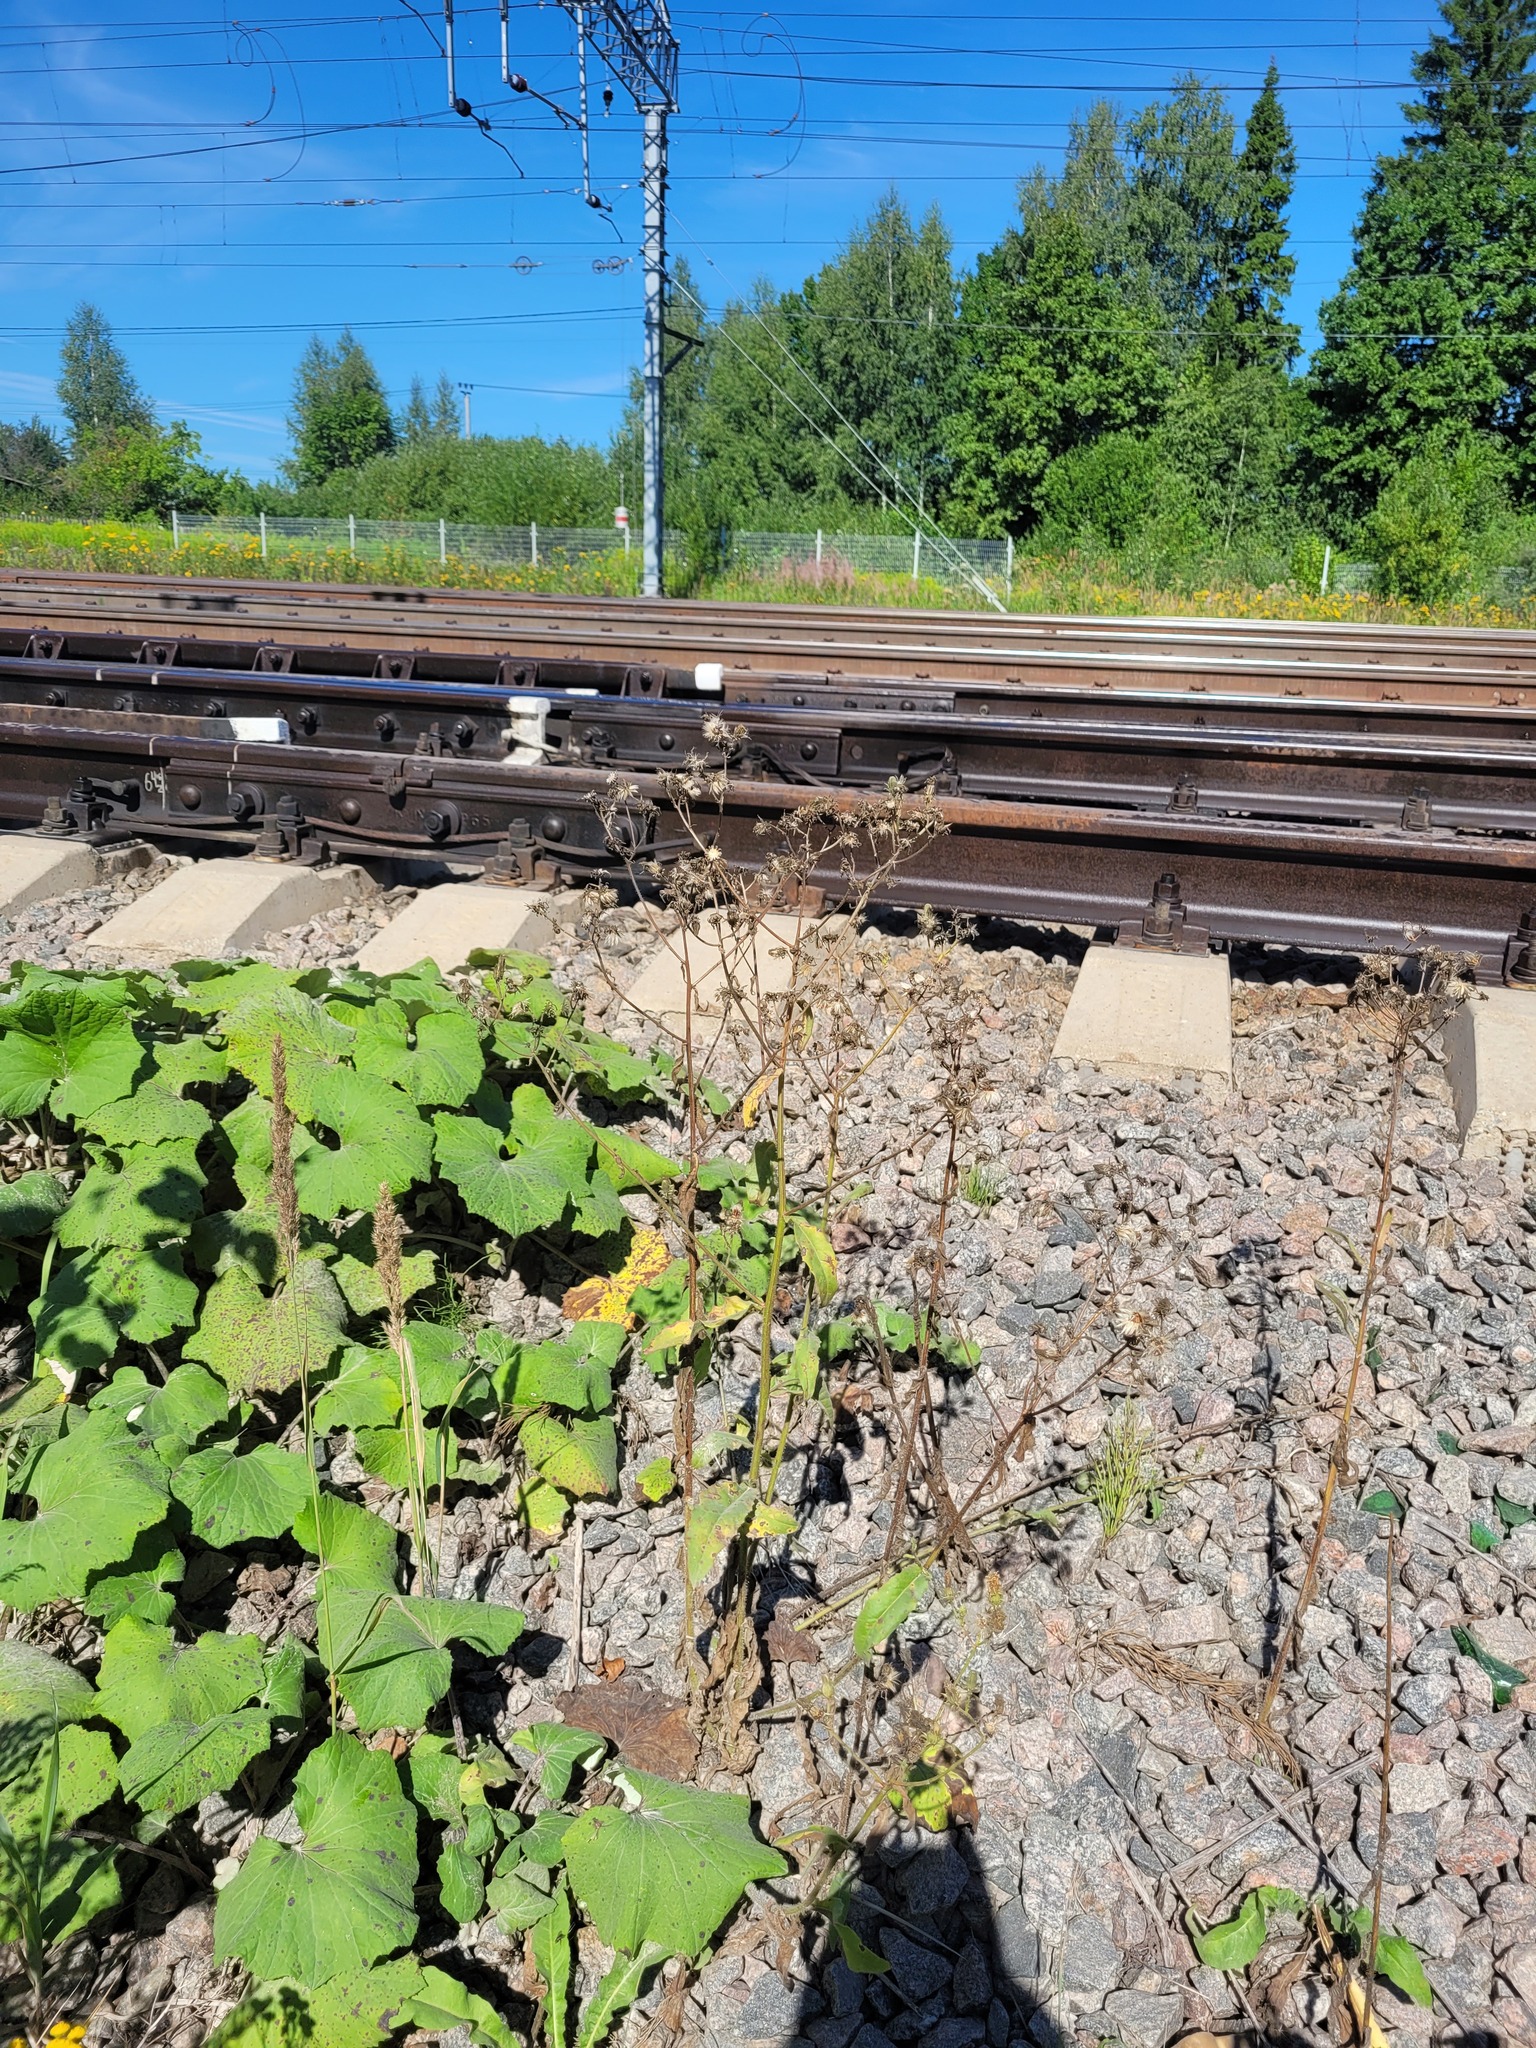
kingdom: Plantae
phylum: Tracheophyta
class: Magnoliopsida
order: Asterales
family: Asteraceae
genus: Picris
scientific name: Picris hieracioides
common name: Hawkweed oxtongue
